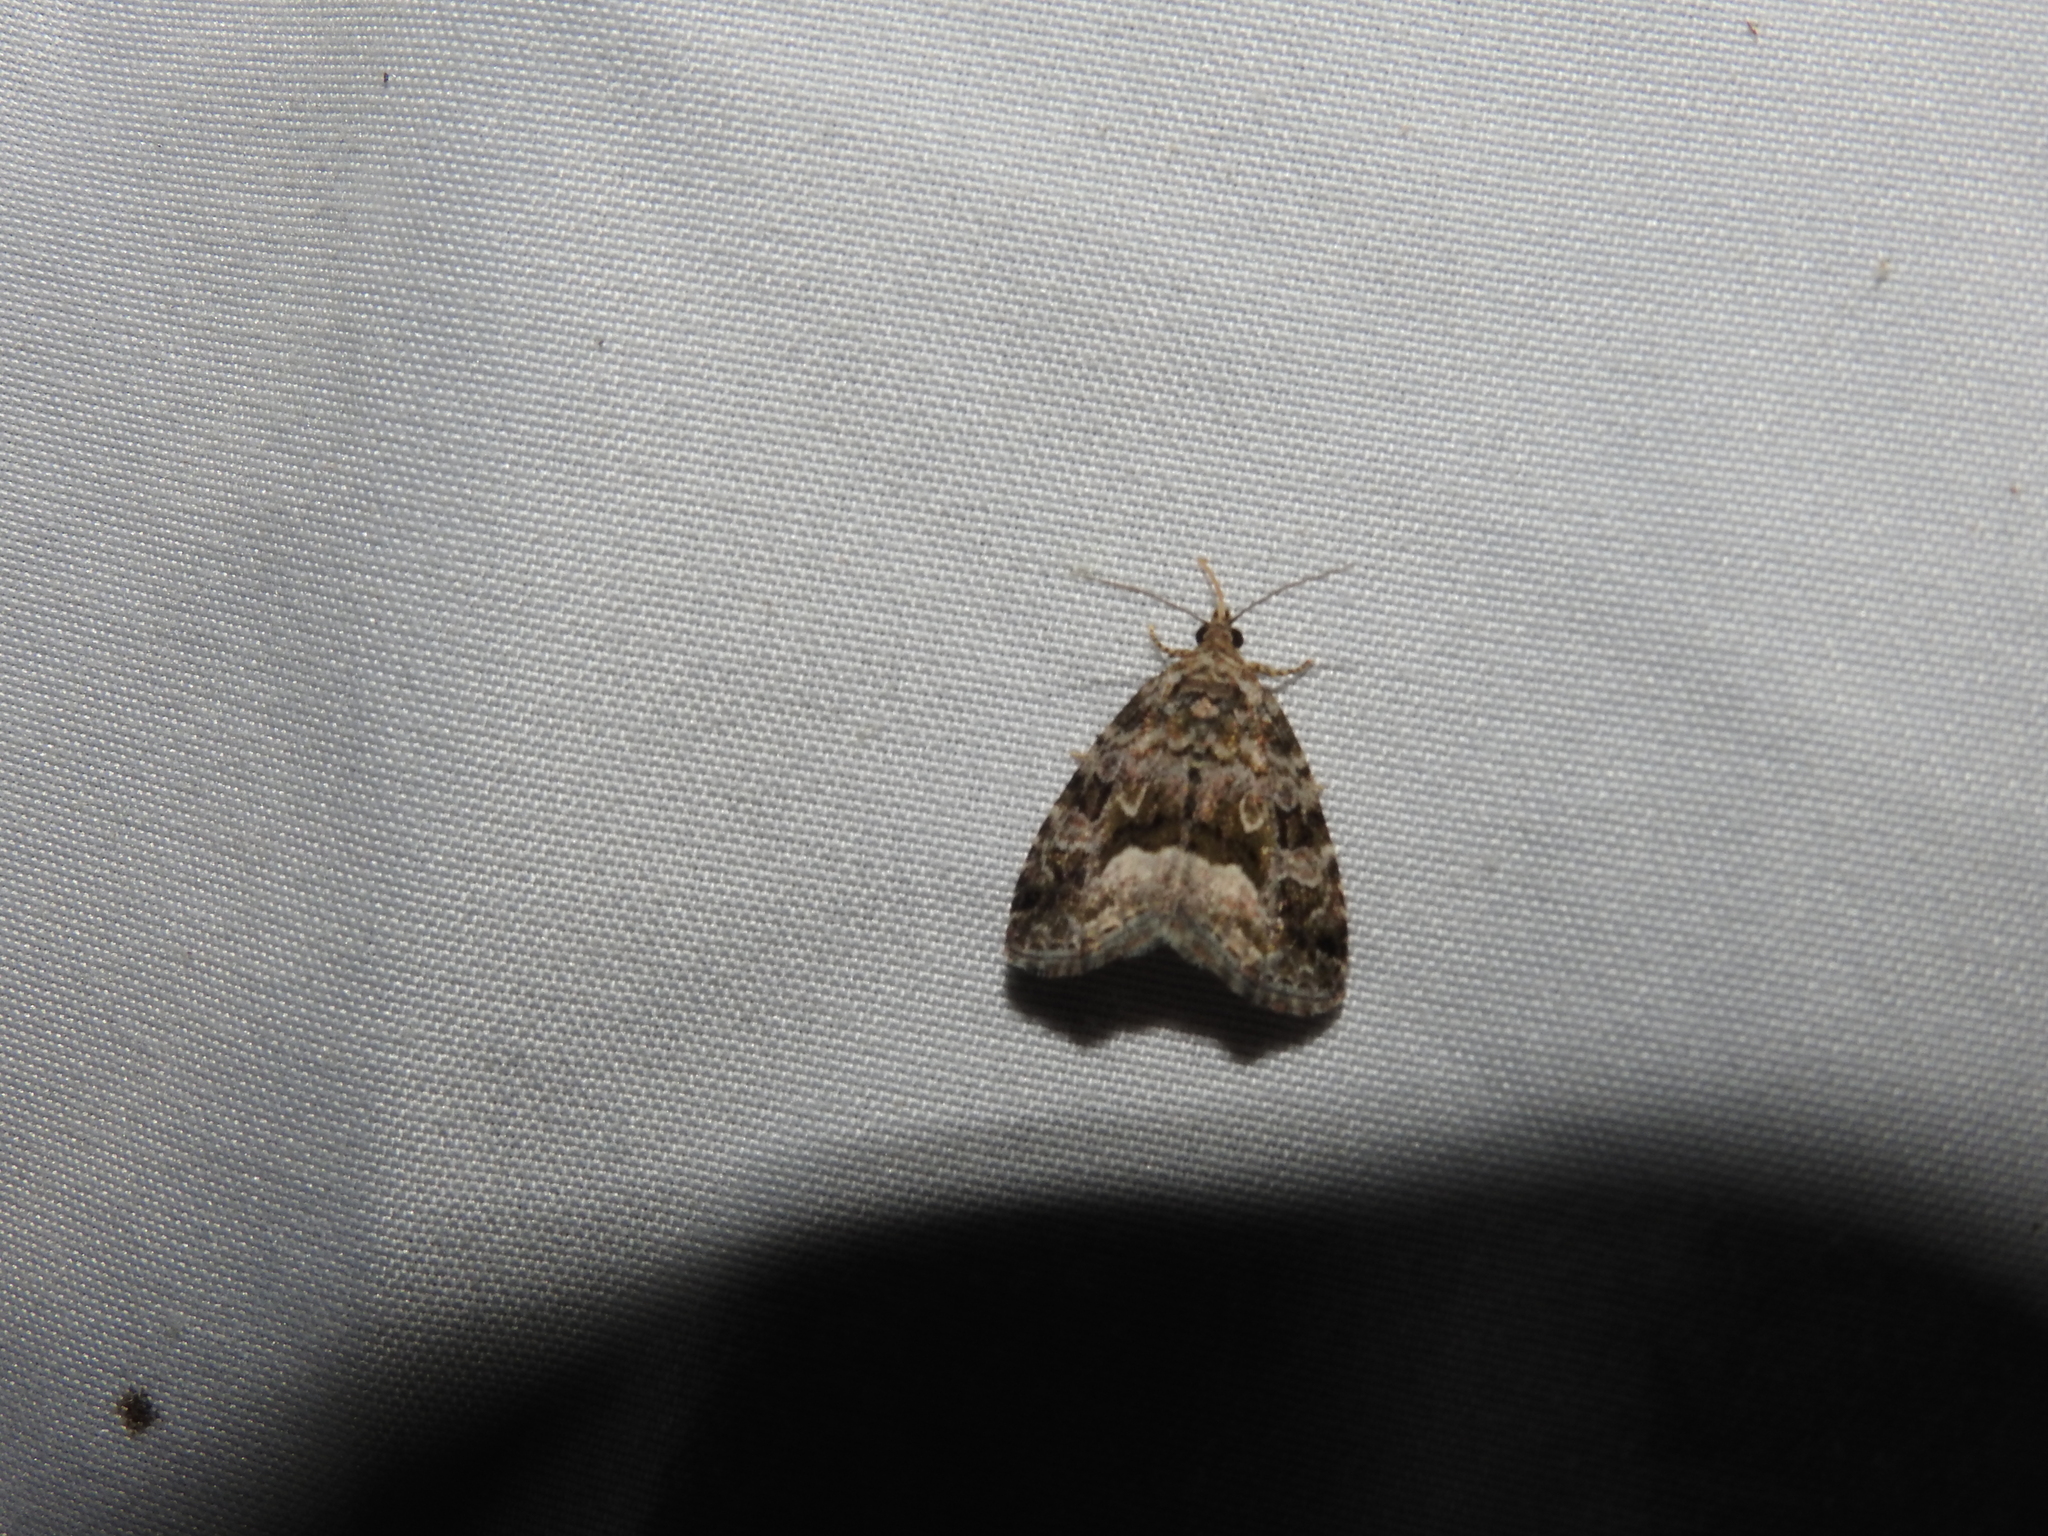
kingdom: Animalia
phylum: Arthropoda
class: Insecta
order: Lepidoptera
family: Noctuidae
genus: Protodeltote
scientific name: Protodeltote muscosula
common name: Large mossy glyph
